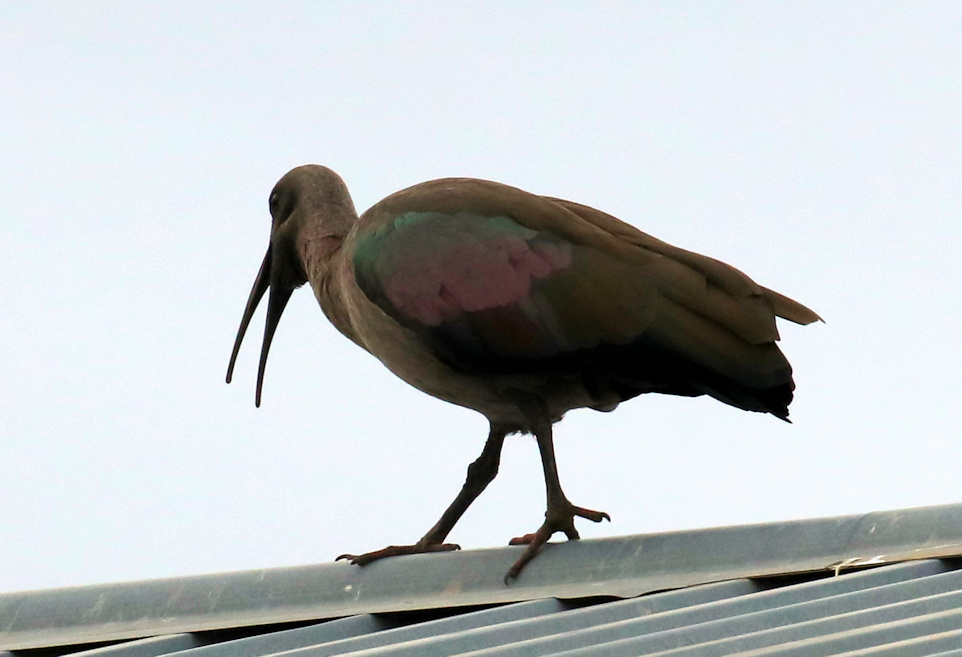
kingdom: Animalia
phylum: Chordata
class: Aves
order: Pelecaniformes
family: Threskiornithidae
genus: Bostrychia
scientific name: Bostrychia hagedash
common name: Hadada ibis
